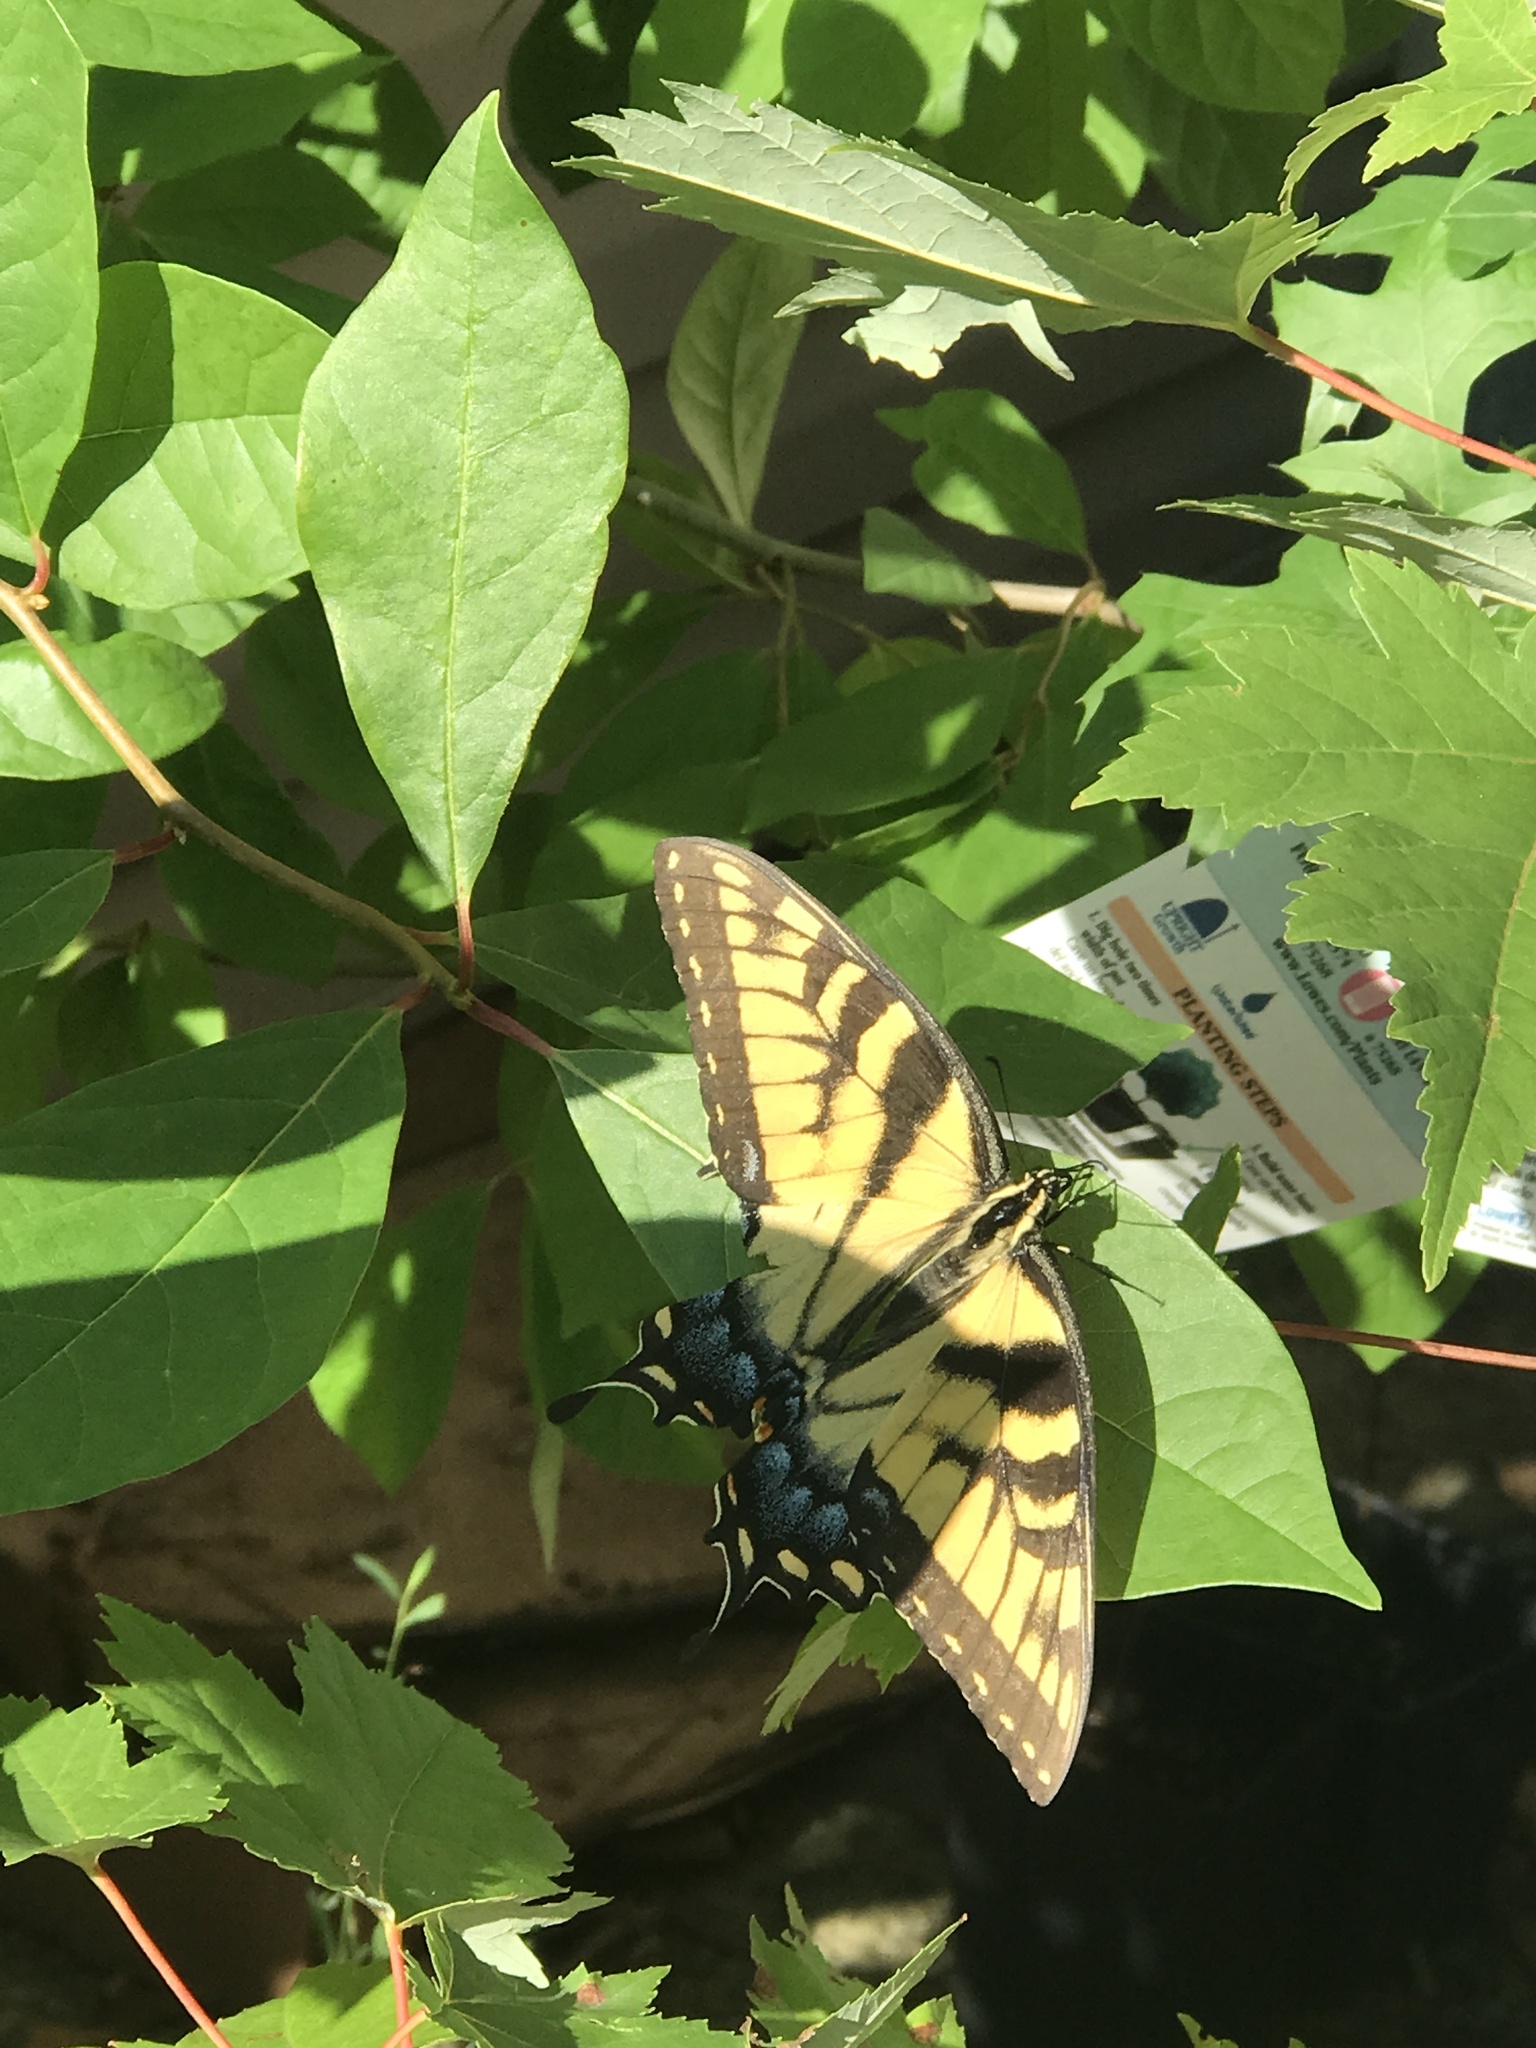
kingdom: Animalia
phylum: Arthropoda
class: Insecta
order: Lepidoptera
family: Papilionidae
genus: Papilio
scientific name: Papilio glaucus
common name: Tiger swallowtail
